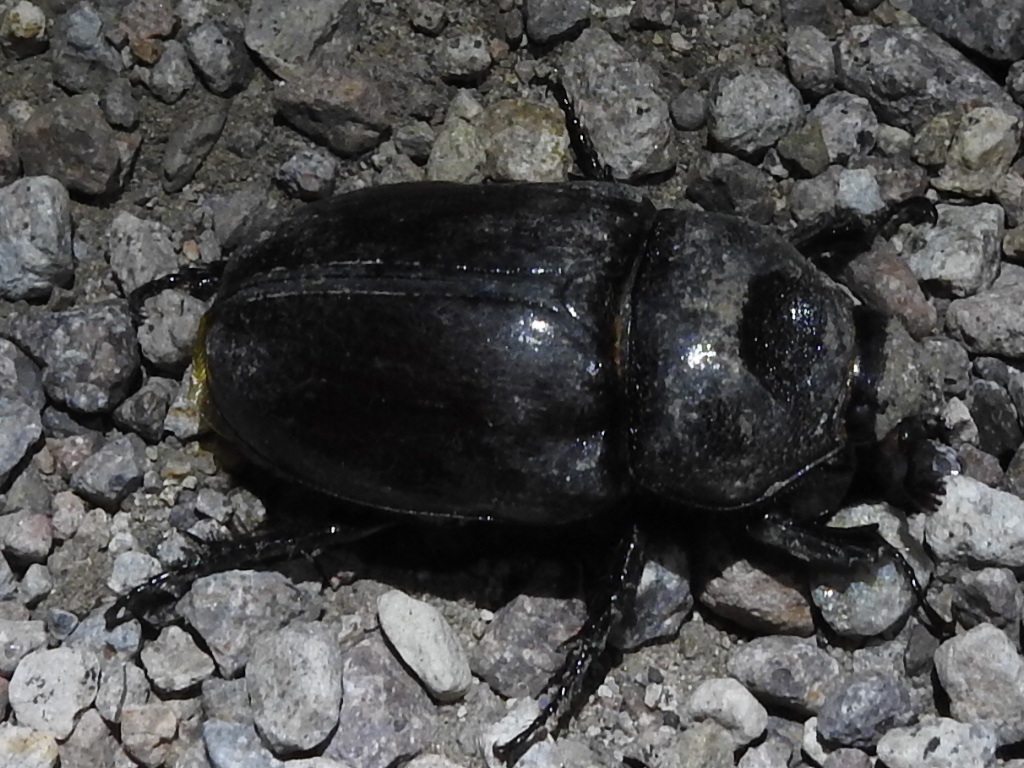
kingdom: Animalia
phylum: Arthropoda
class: Insecta
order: Coleoptera
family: Scarabaeidae
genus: Strategus
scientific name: Strategus aloeus
